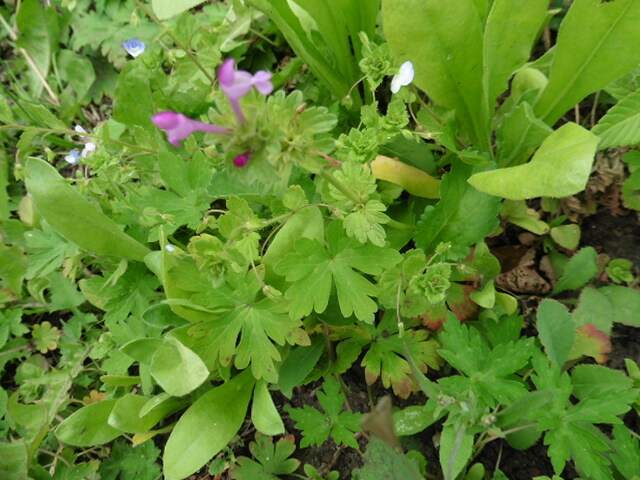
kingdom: Plantae
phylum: Tracheophyta
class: Magnoliopsida
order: Lamiales
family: Lamiaceae
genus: Lamium
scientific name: Lamium amplexicaule
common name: Henbit dead-nettle
